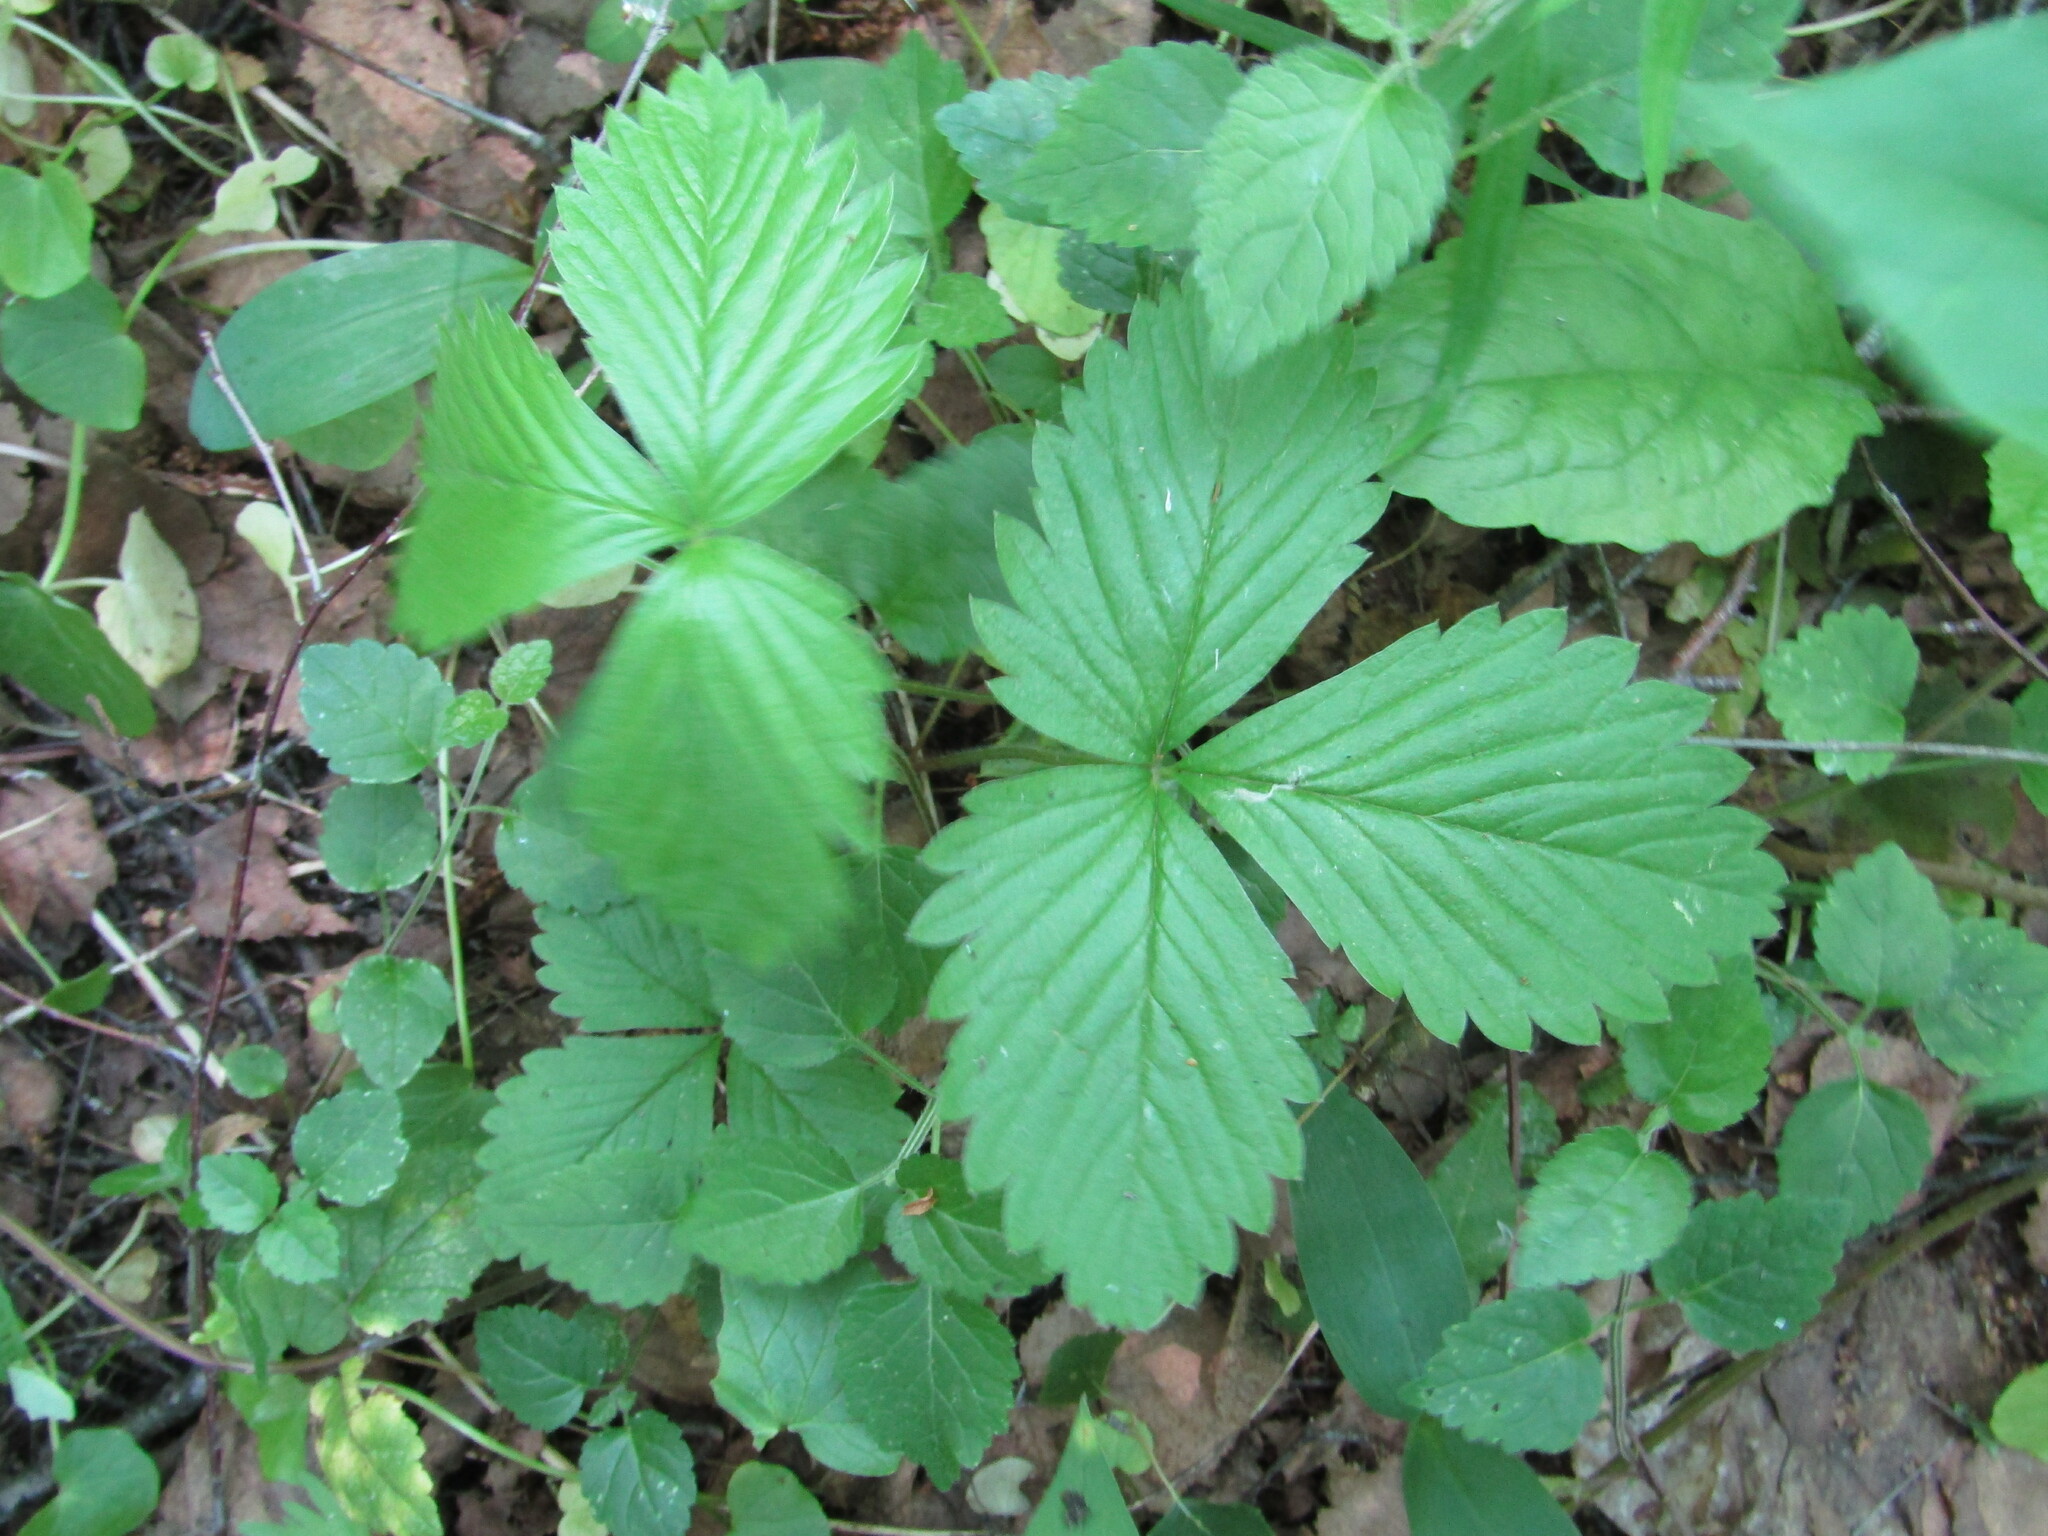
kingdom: Plantae
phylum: Tracheophyta
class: Magnoliopsida
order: Rosales
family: Rosaceae
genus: Fragaria
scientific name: Fragaria vesca
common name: Wild strawberry
